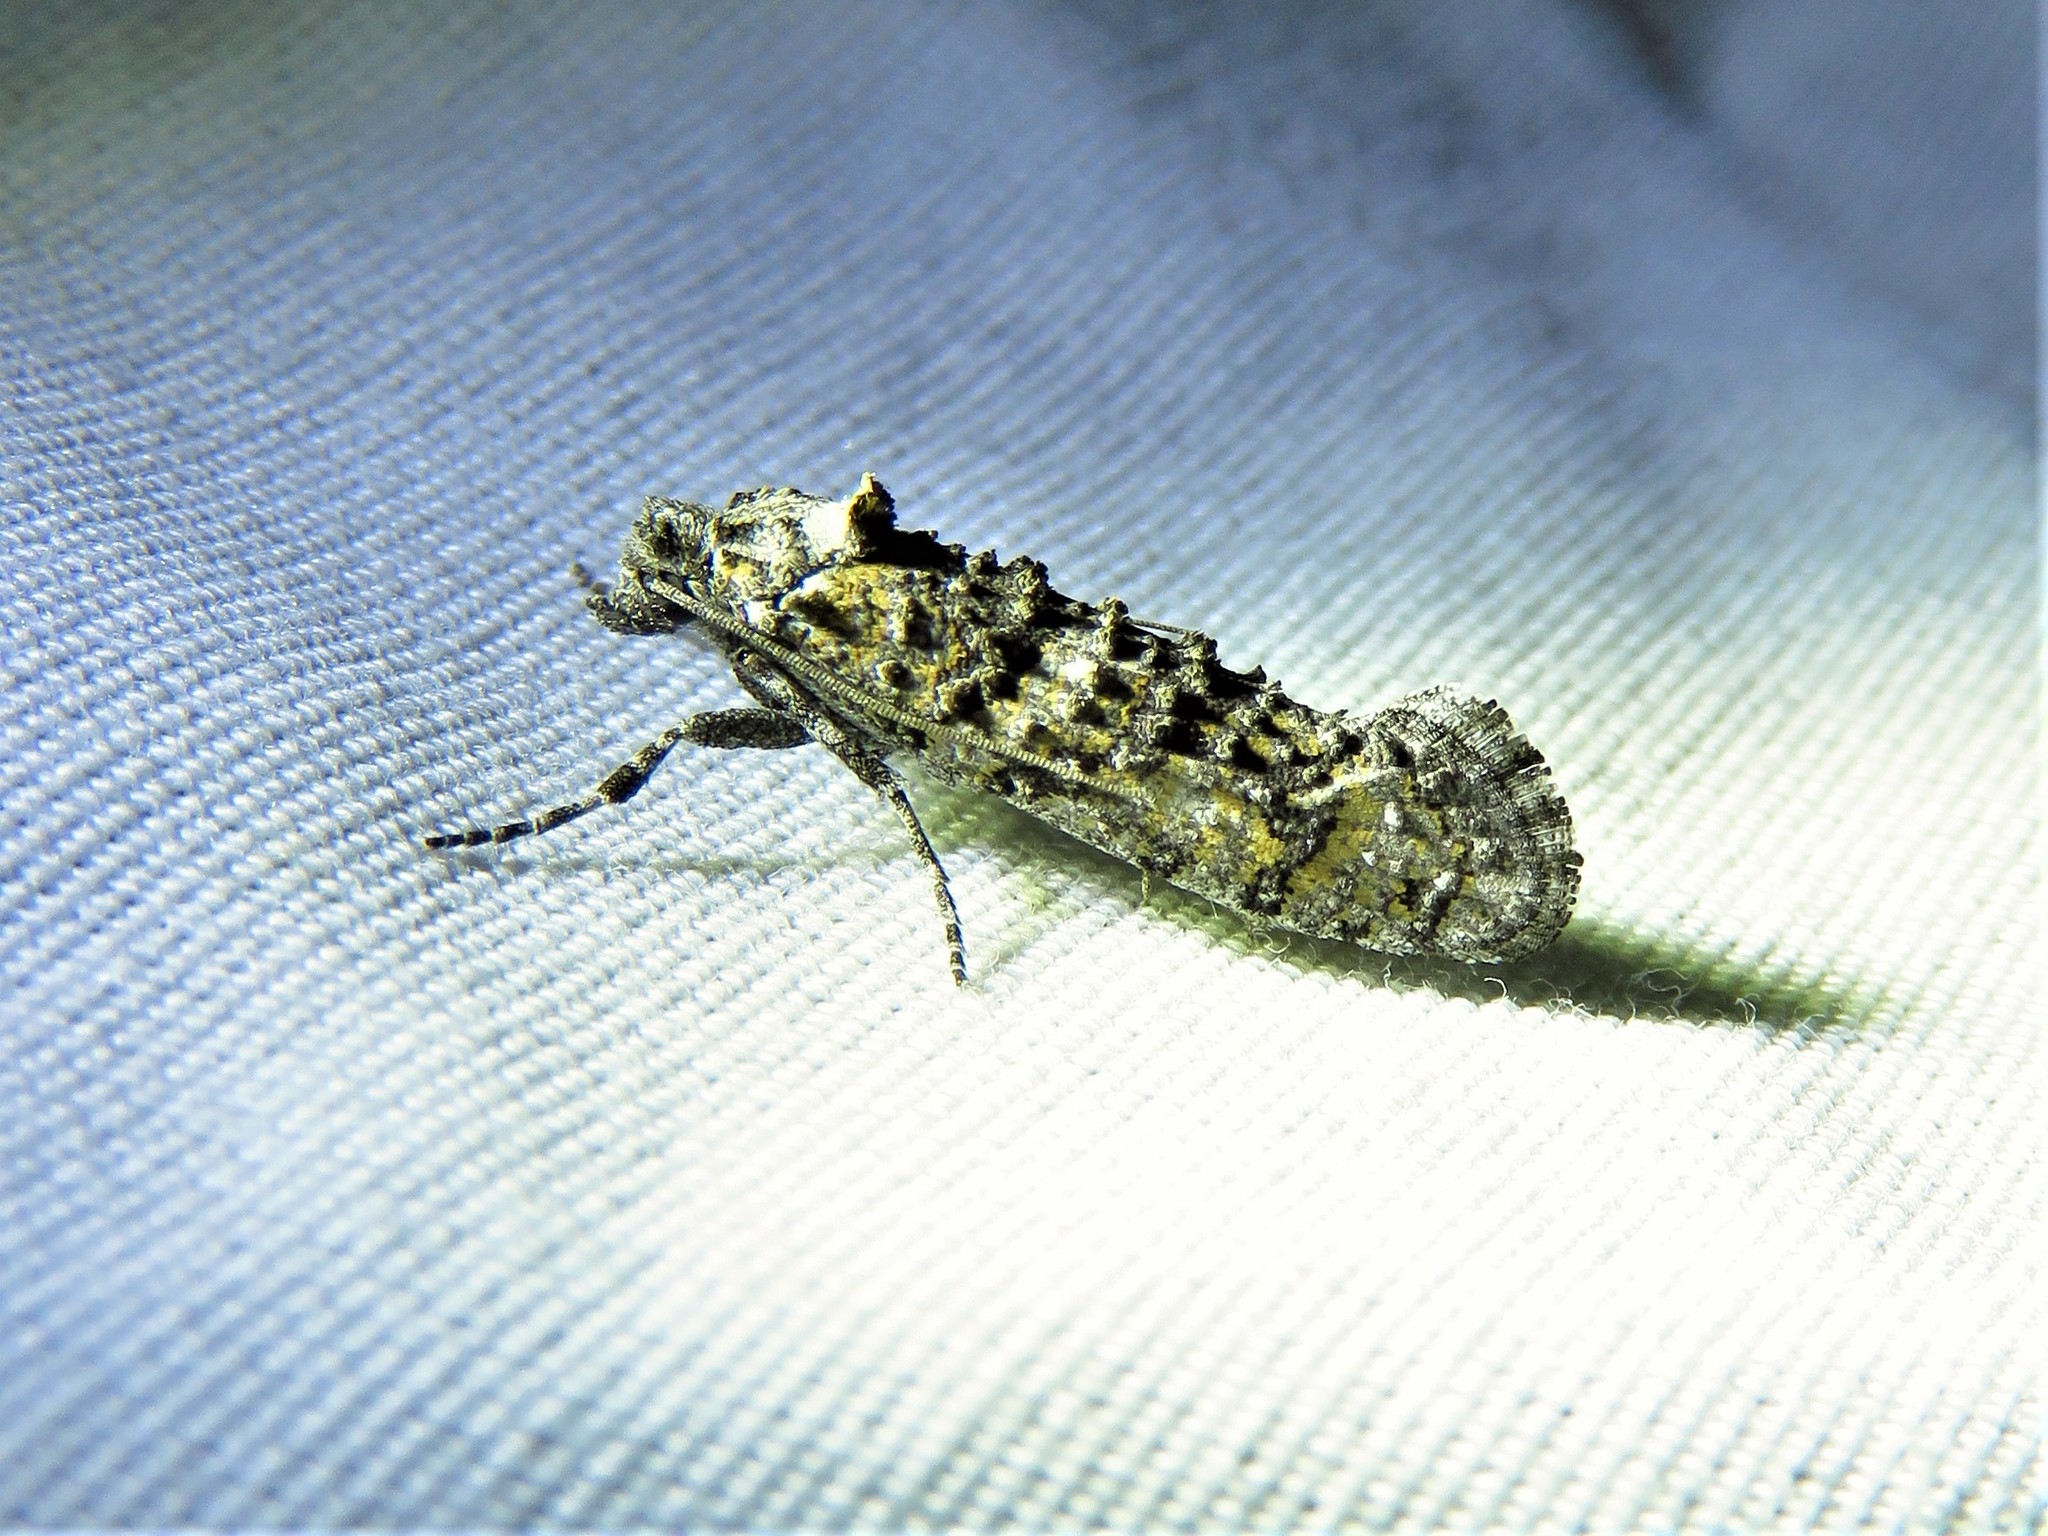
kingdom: Animalia
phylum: Arthropoda
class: Insecta
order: Lepidoptera
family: Tineidae
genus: Dyotopasta
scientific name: Dyotopasta yumaella
